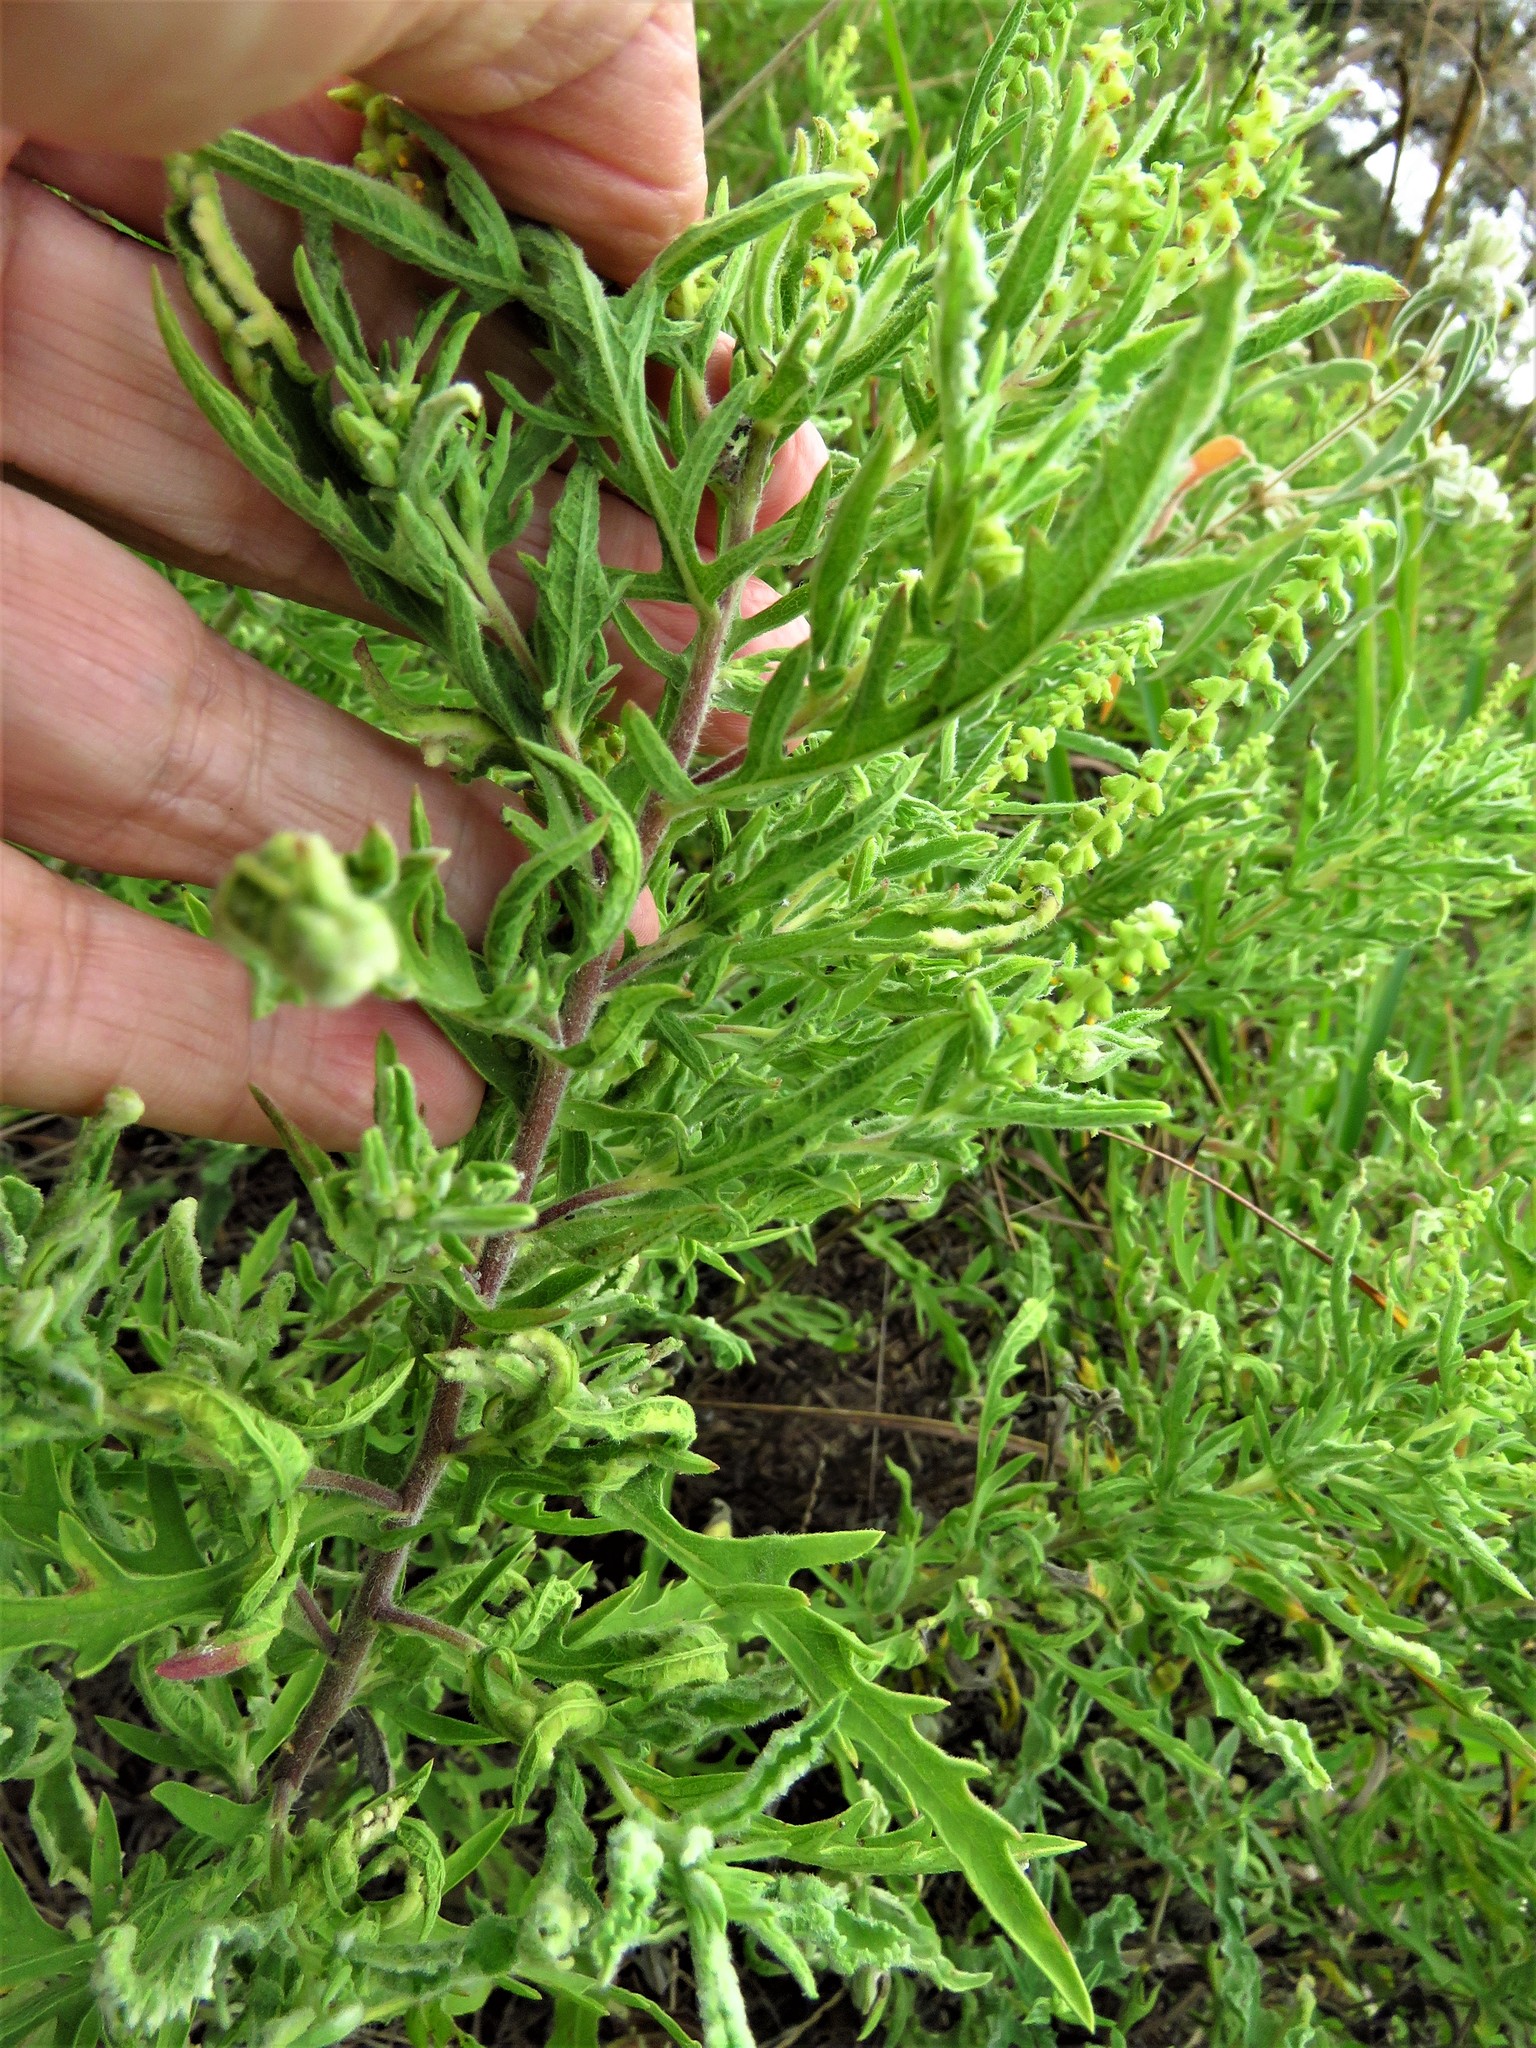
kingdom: Plantae
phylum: Tracheophyta
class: Magnoliopsida
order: Asterales
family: Asteraceae
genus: Ambrosia
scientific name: Ambrosia psilostachya
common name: Perennial ragweed
